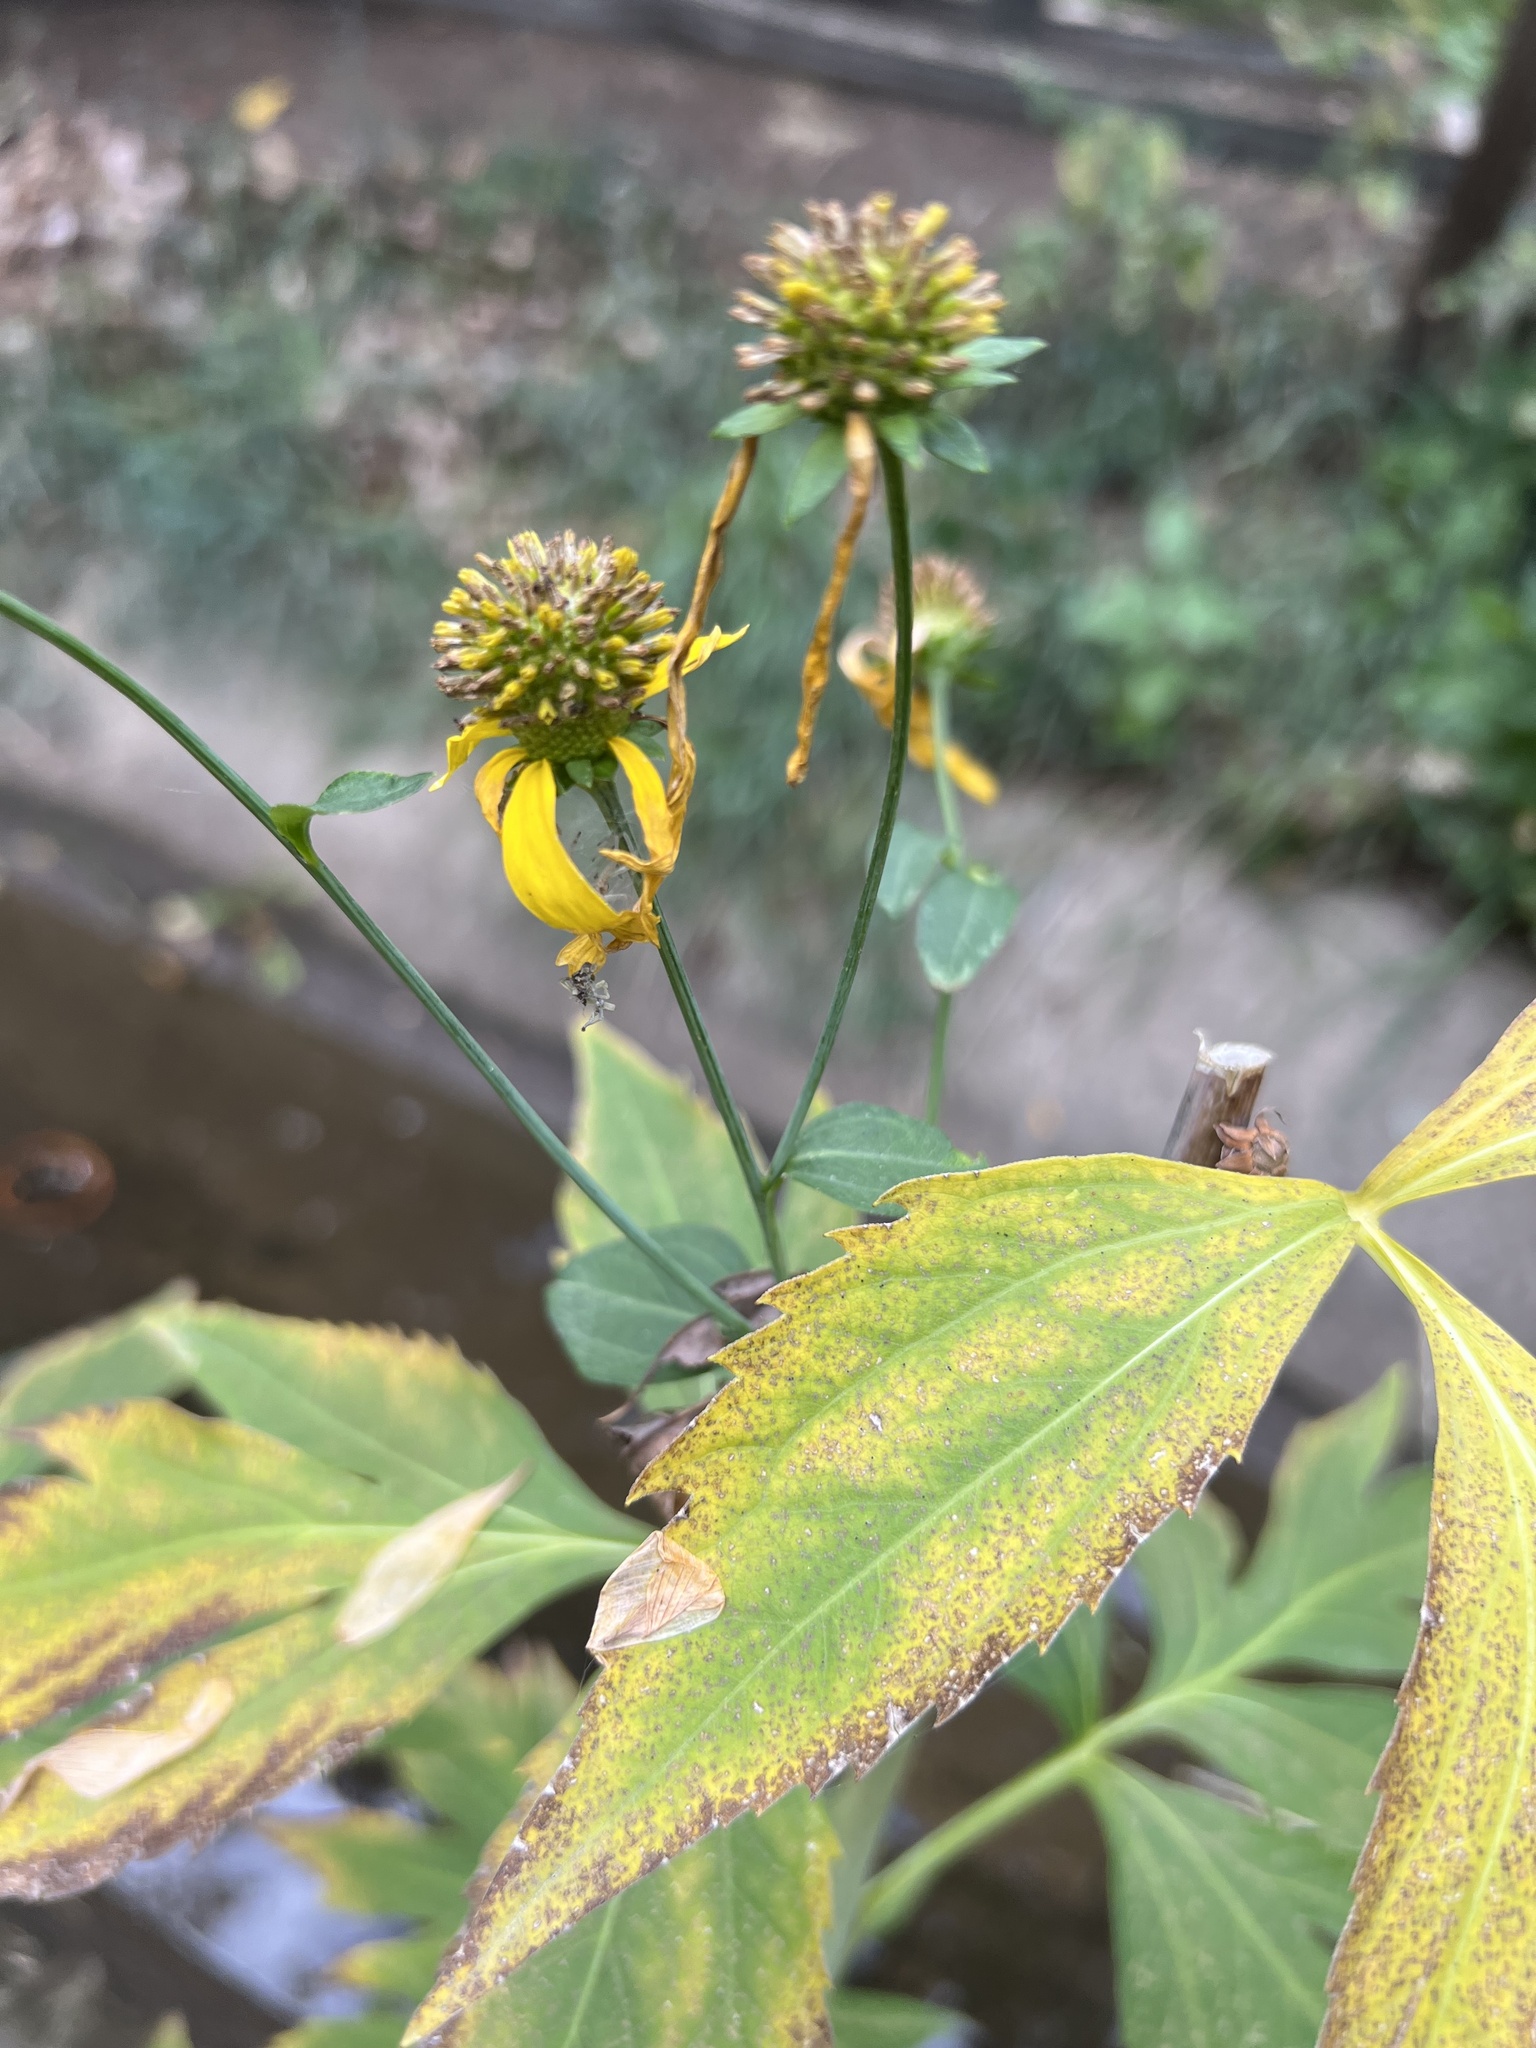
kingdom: Plantae
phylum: Tracheophyta
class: Magnoliopsida
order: Asterales
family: Asteraceae
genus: Rudbeckia
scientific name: Rudbeckia laciniata
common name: Coneflower
